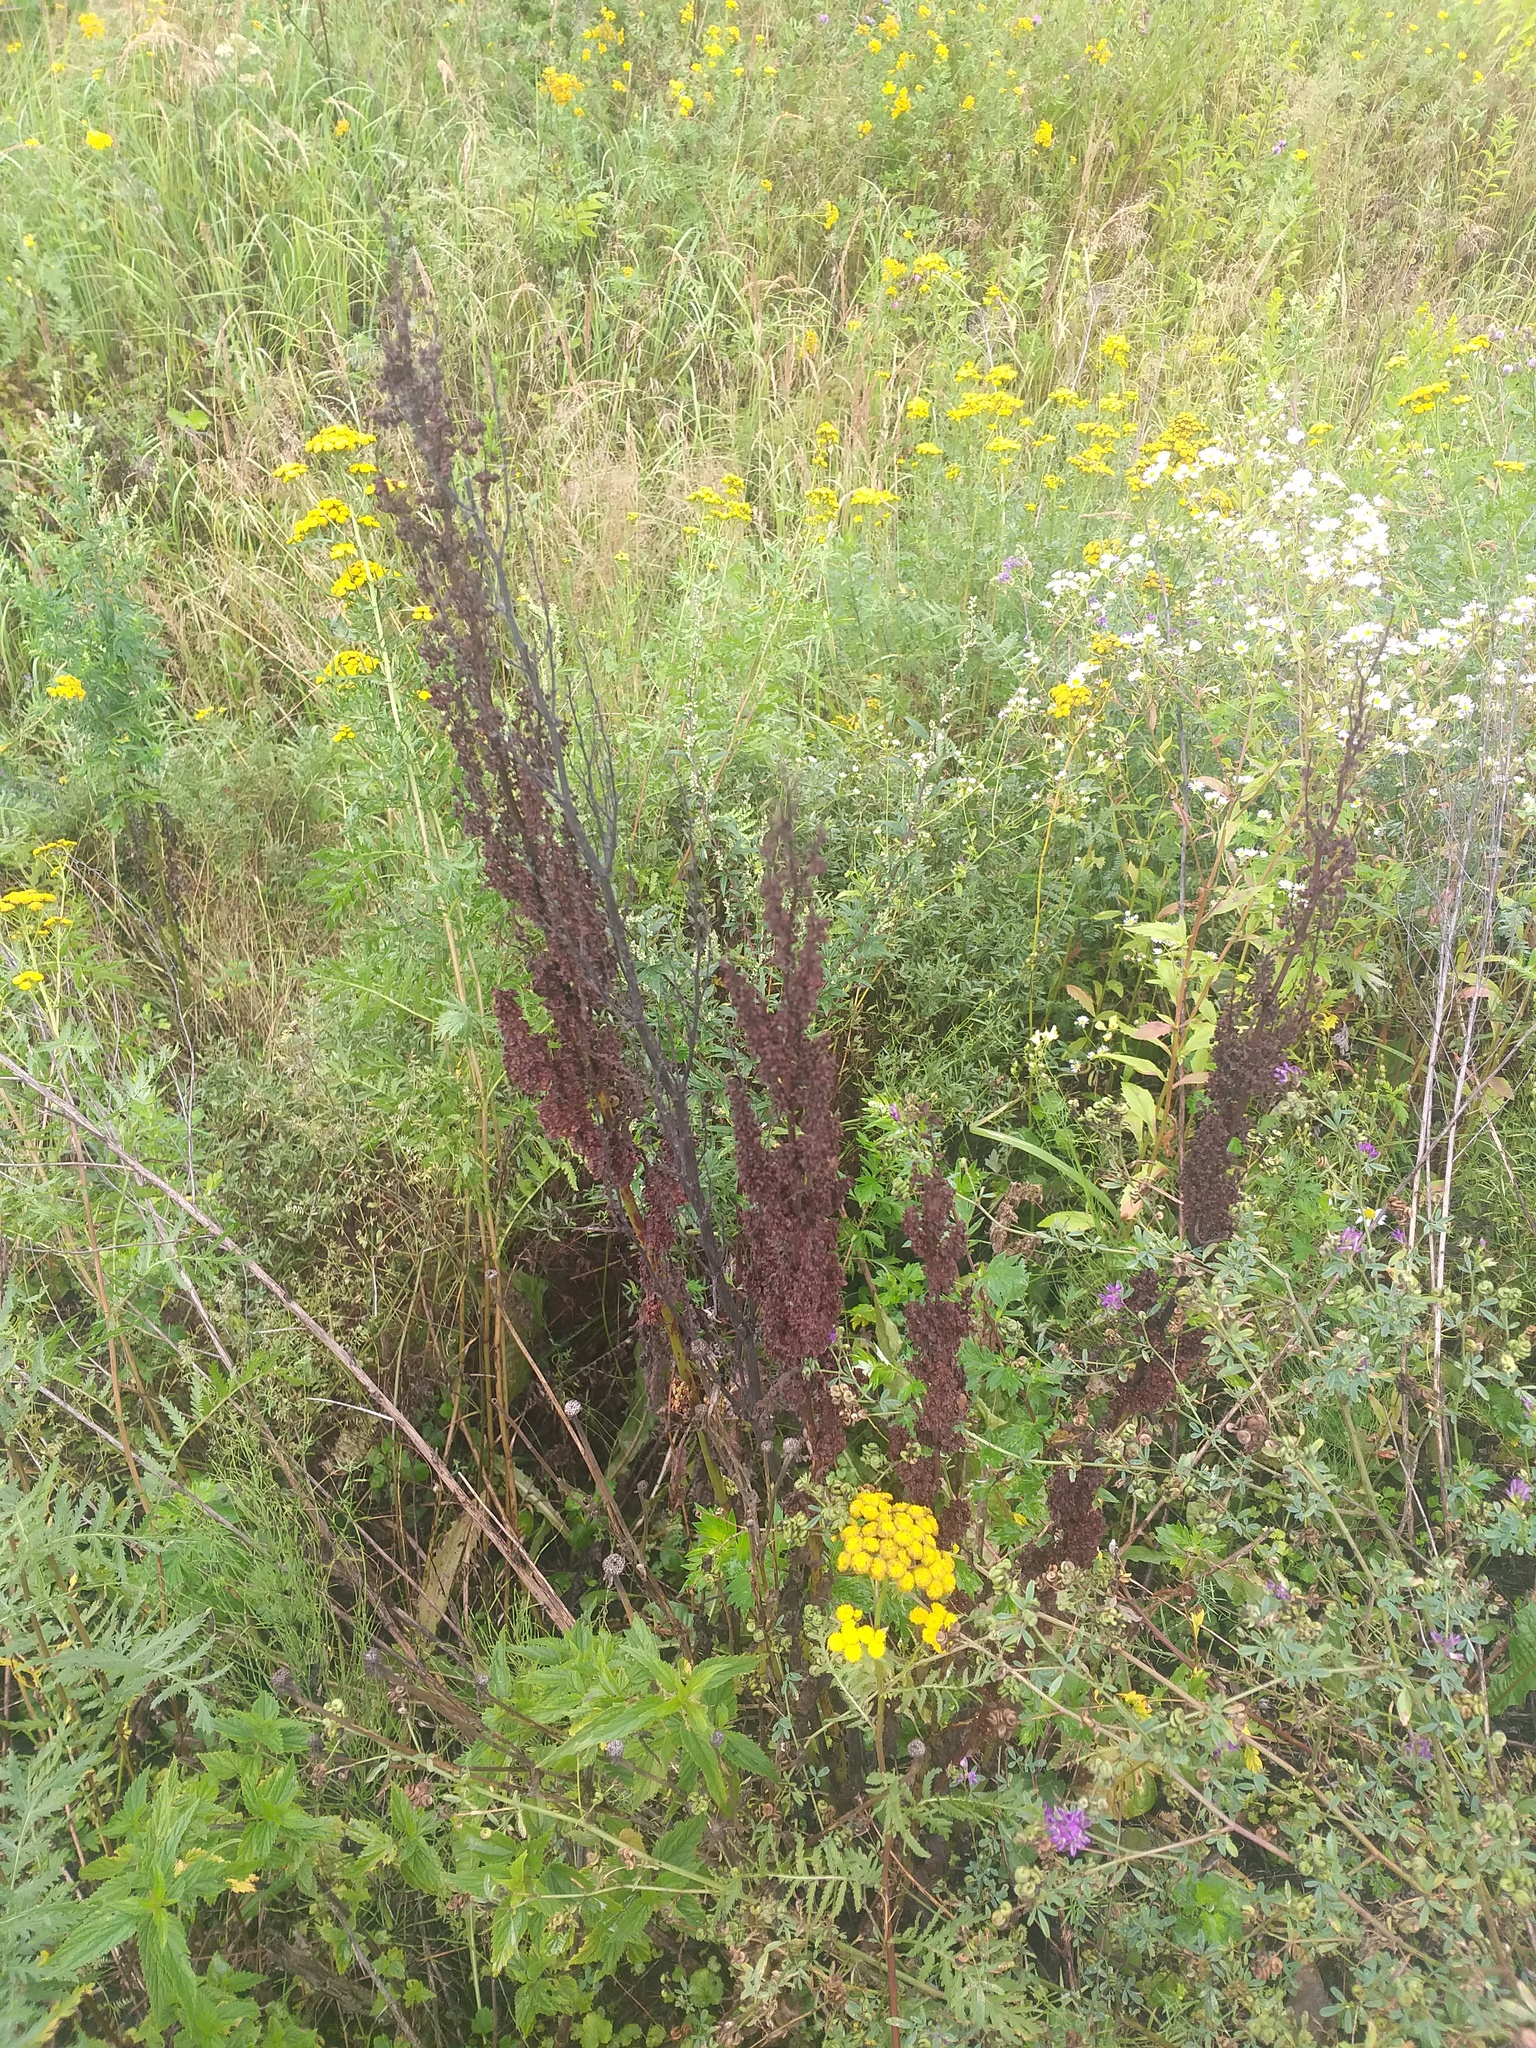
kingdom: Plantae
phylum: Tracheophyta
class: Magnoliopsida
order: Caryophyllales
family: Polygonaceae
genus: Rumex
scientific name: Rumex crispus
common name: Curled dock
